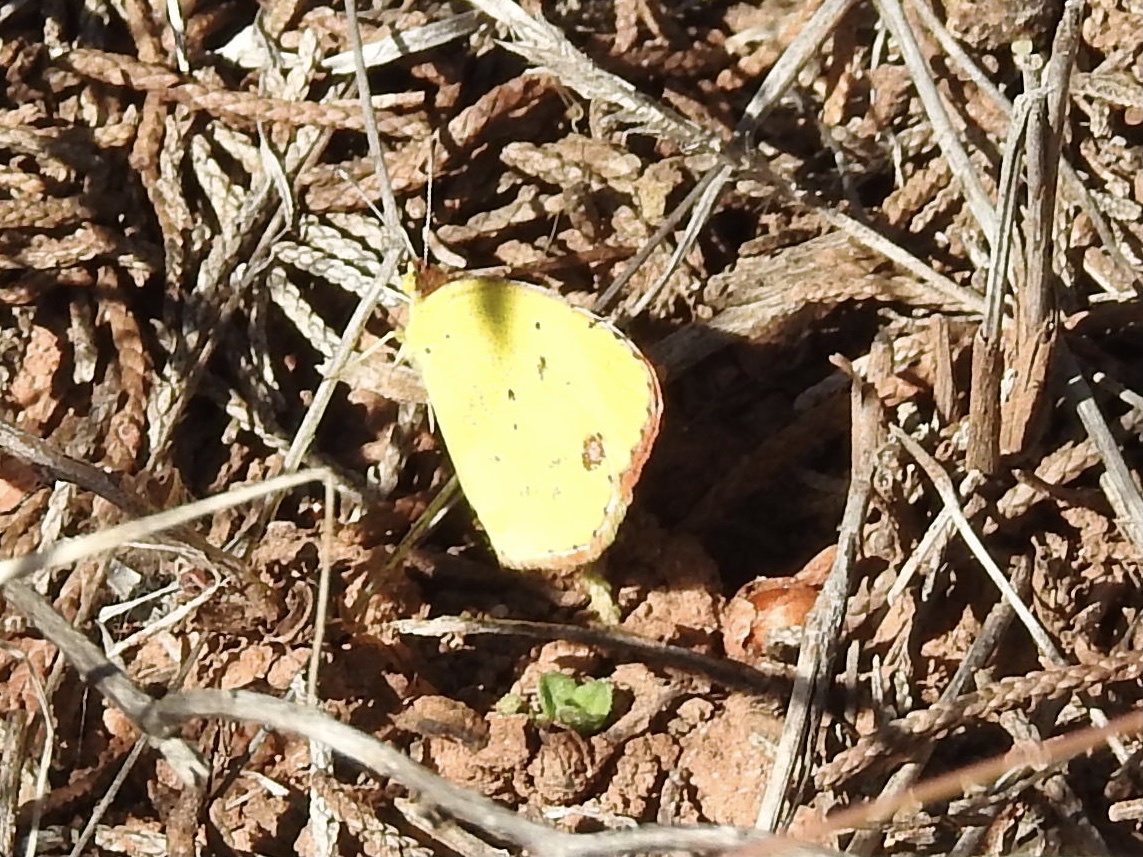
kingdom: Animalia
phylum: Arthropoda
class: Insecta
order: Lepidoptera
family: Pieridae
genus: Pyrisitia
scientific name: Pyrisitia lisa
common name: Little yellow
